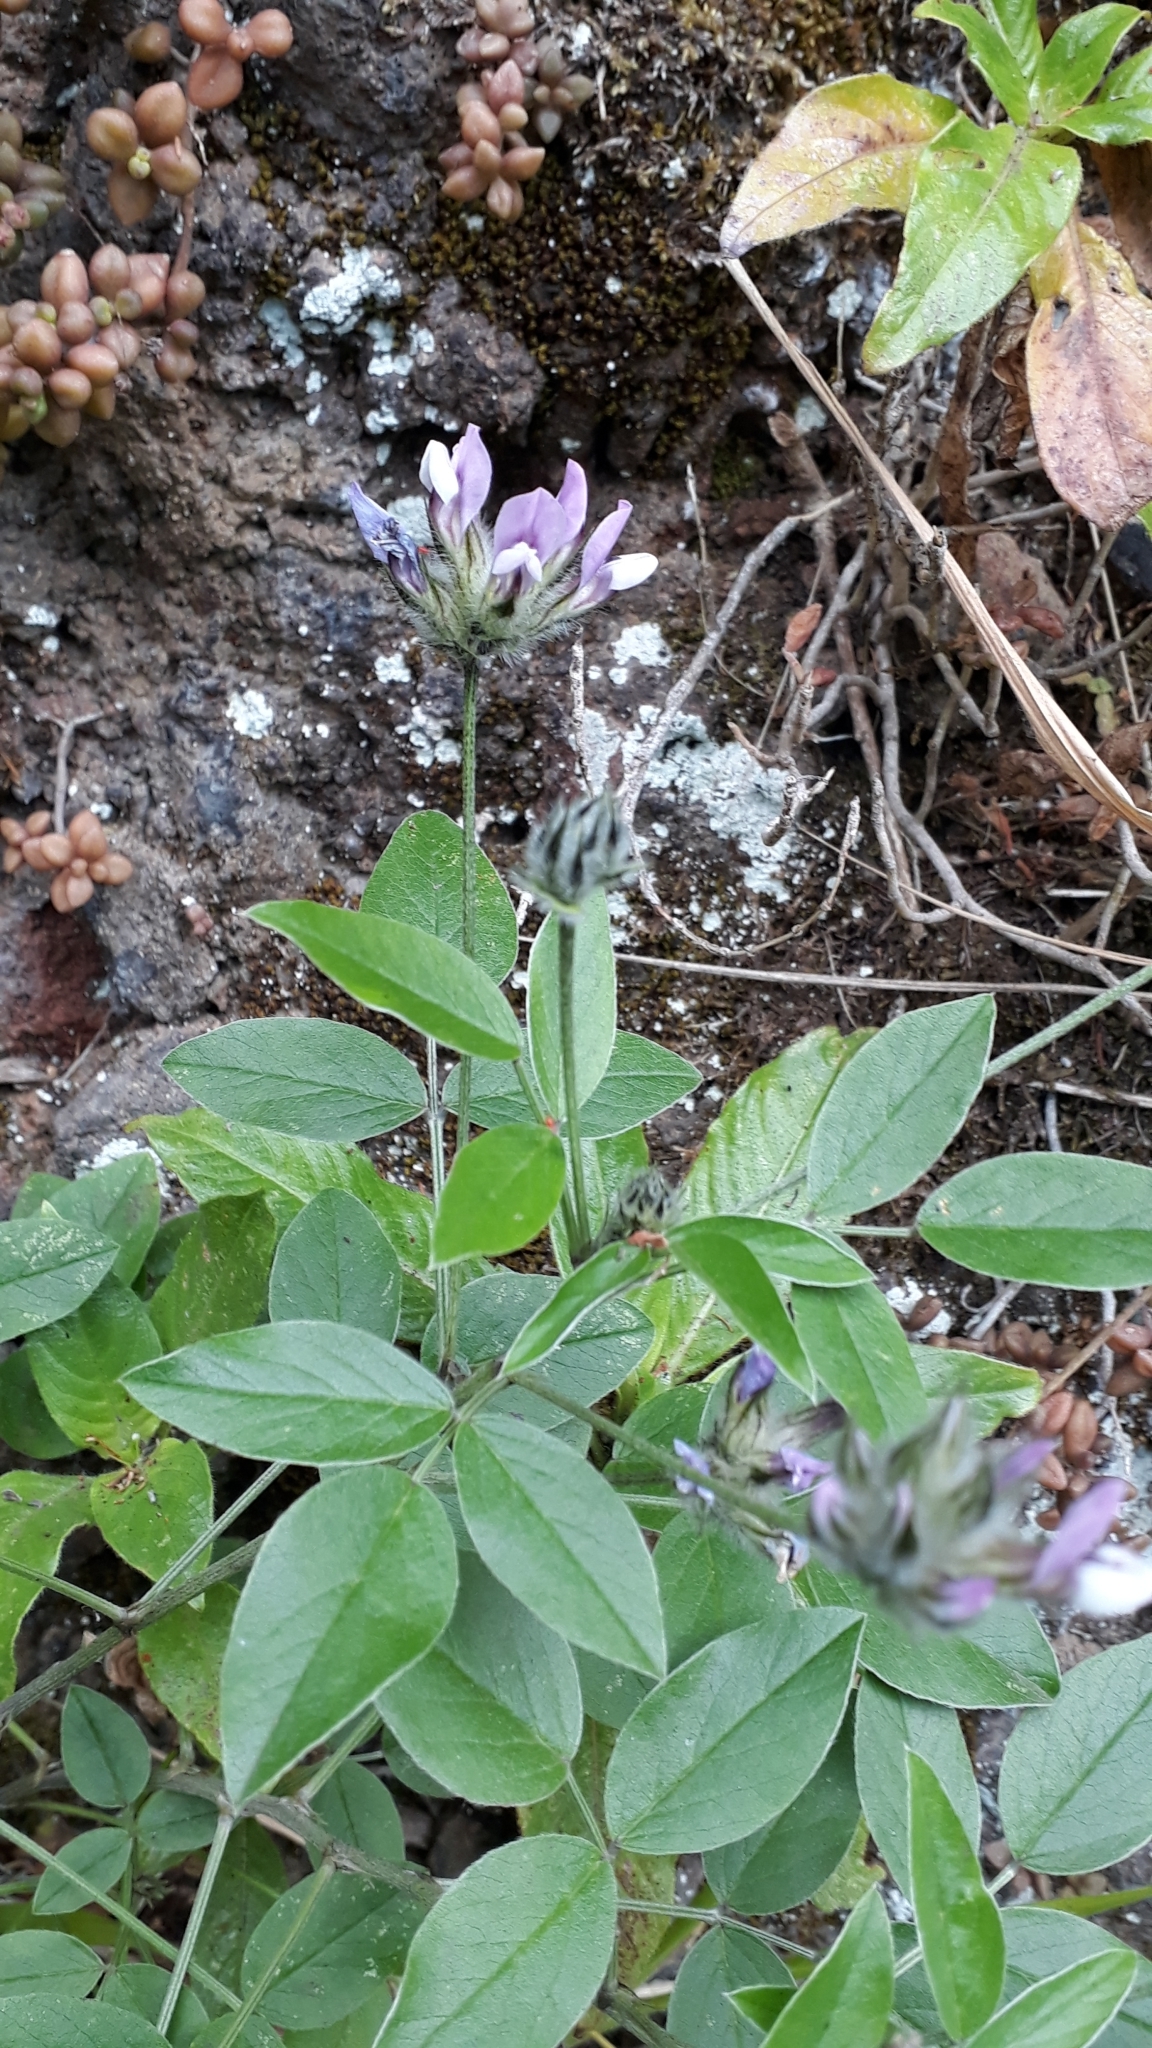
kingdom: Plantae
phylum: Tracheophyta
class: Magnoliopsida
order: Fabales
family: Fabaceae
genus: Bituminaria
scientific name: Bituminaria bituminosa
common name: Arabian pea
